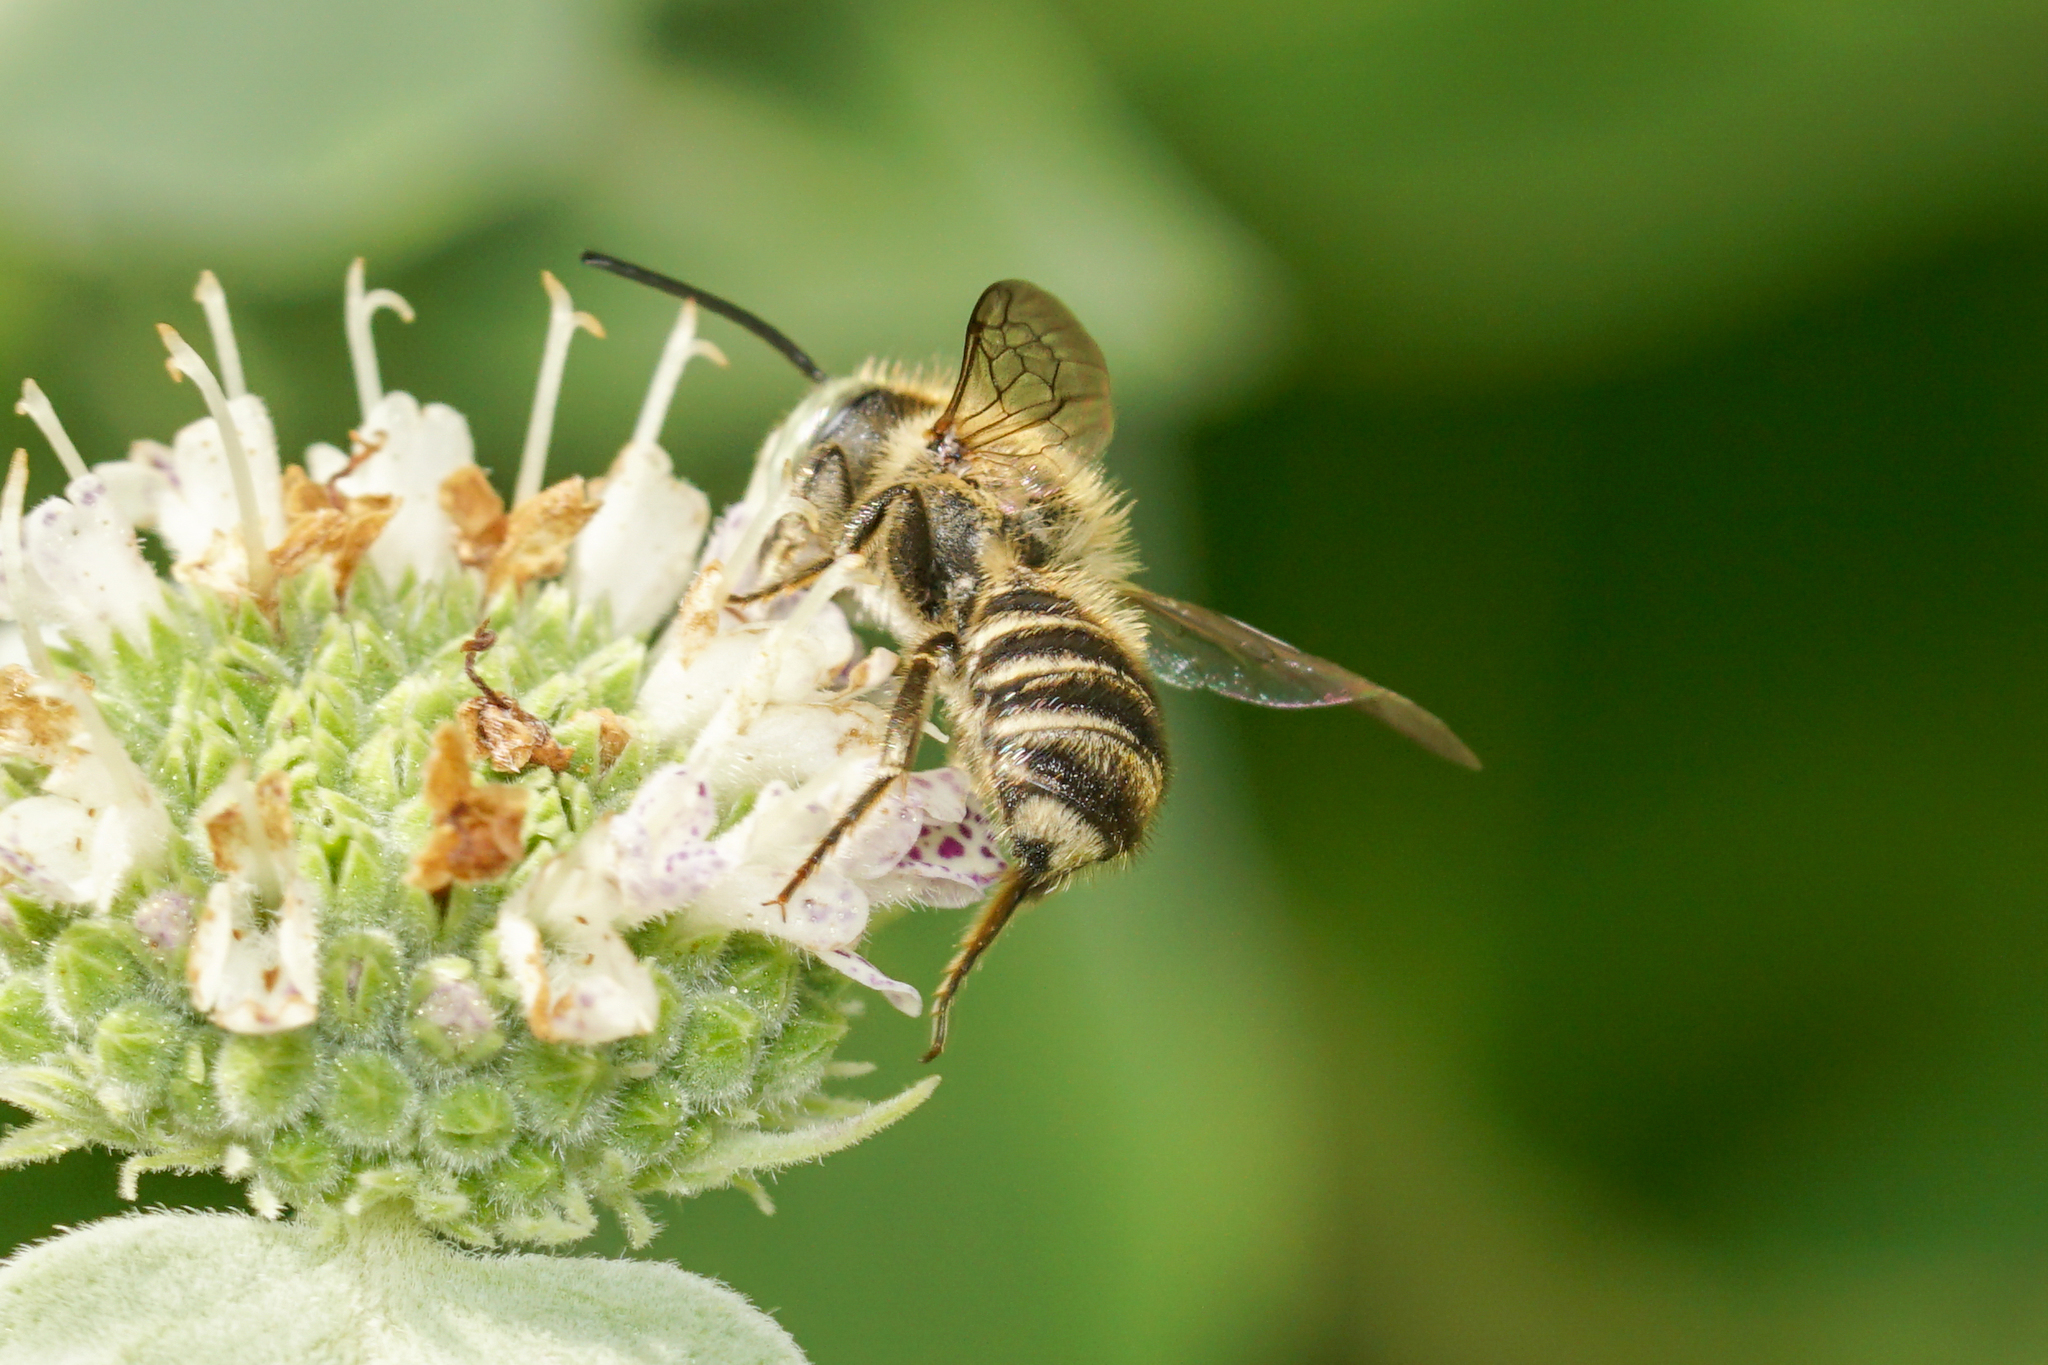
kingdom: Animalia
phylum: Arthropoda
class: Insecta
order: Hymenoptera
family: Megachilidae
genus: Megachile
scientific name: Megachile rotundata
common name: Alfalfa leafcutting bee
